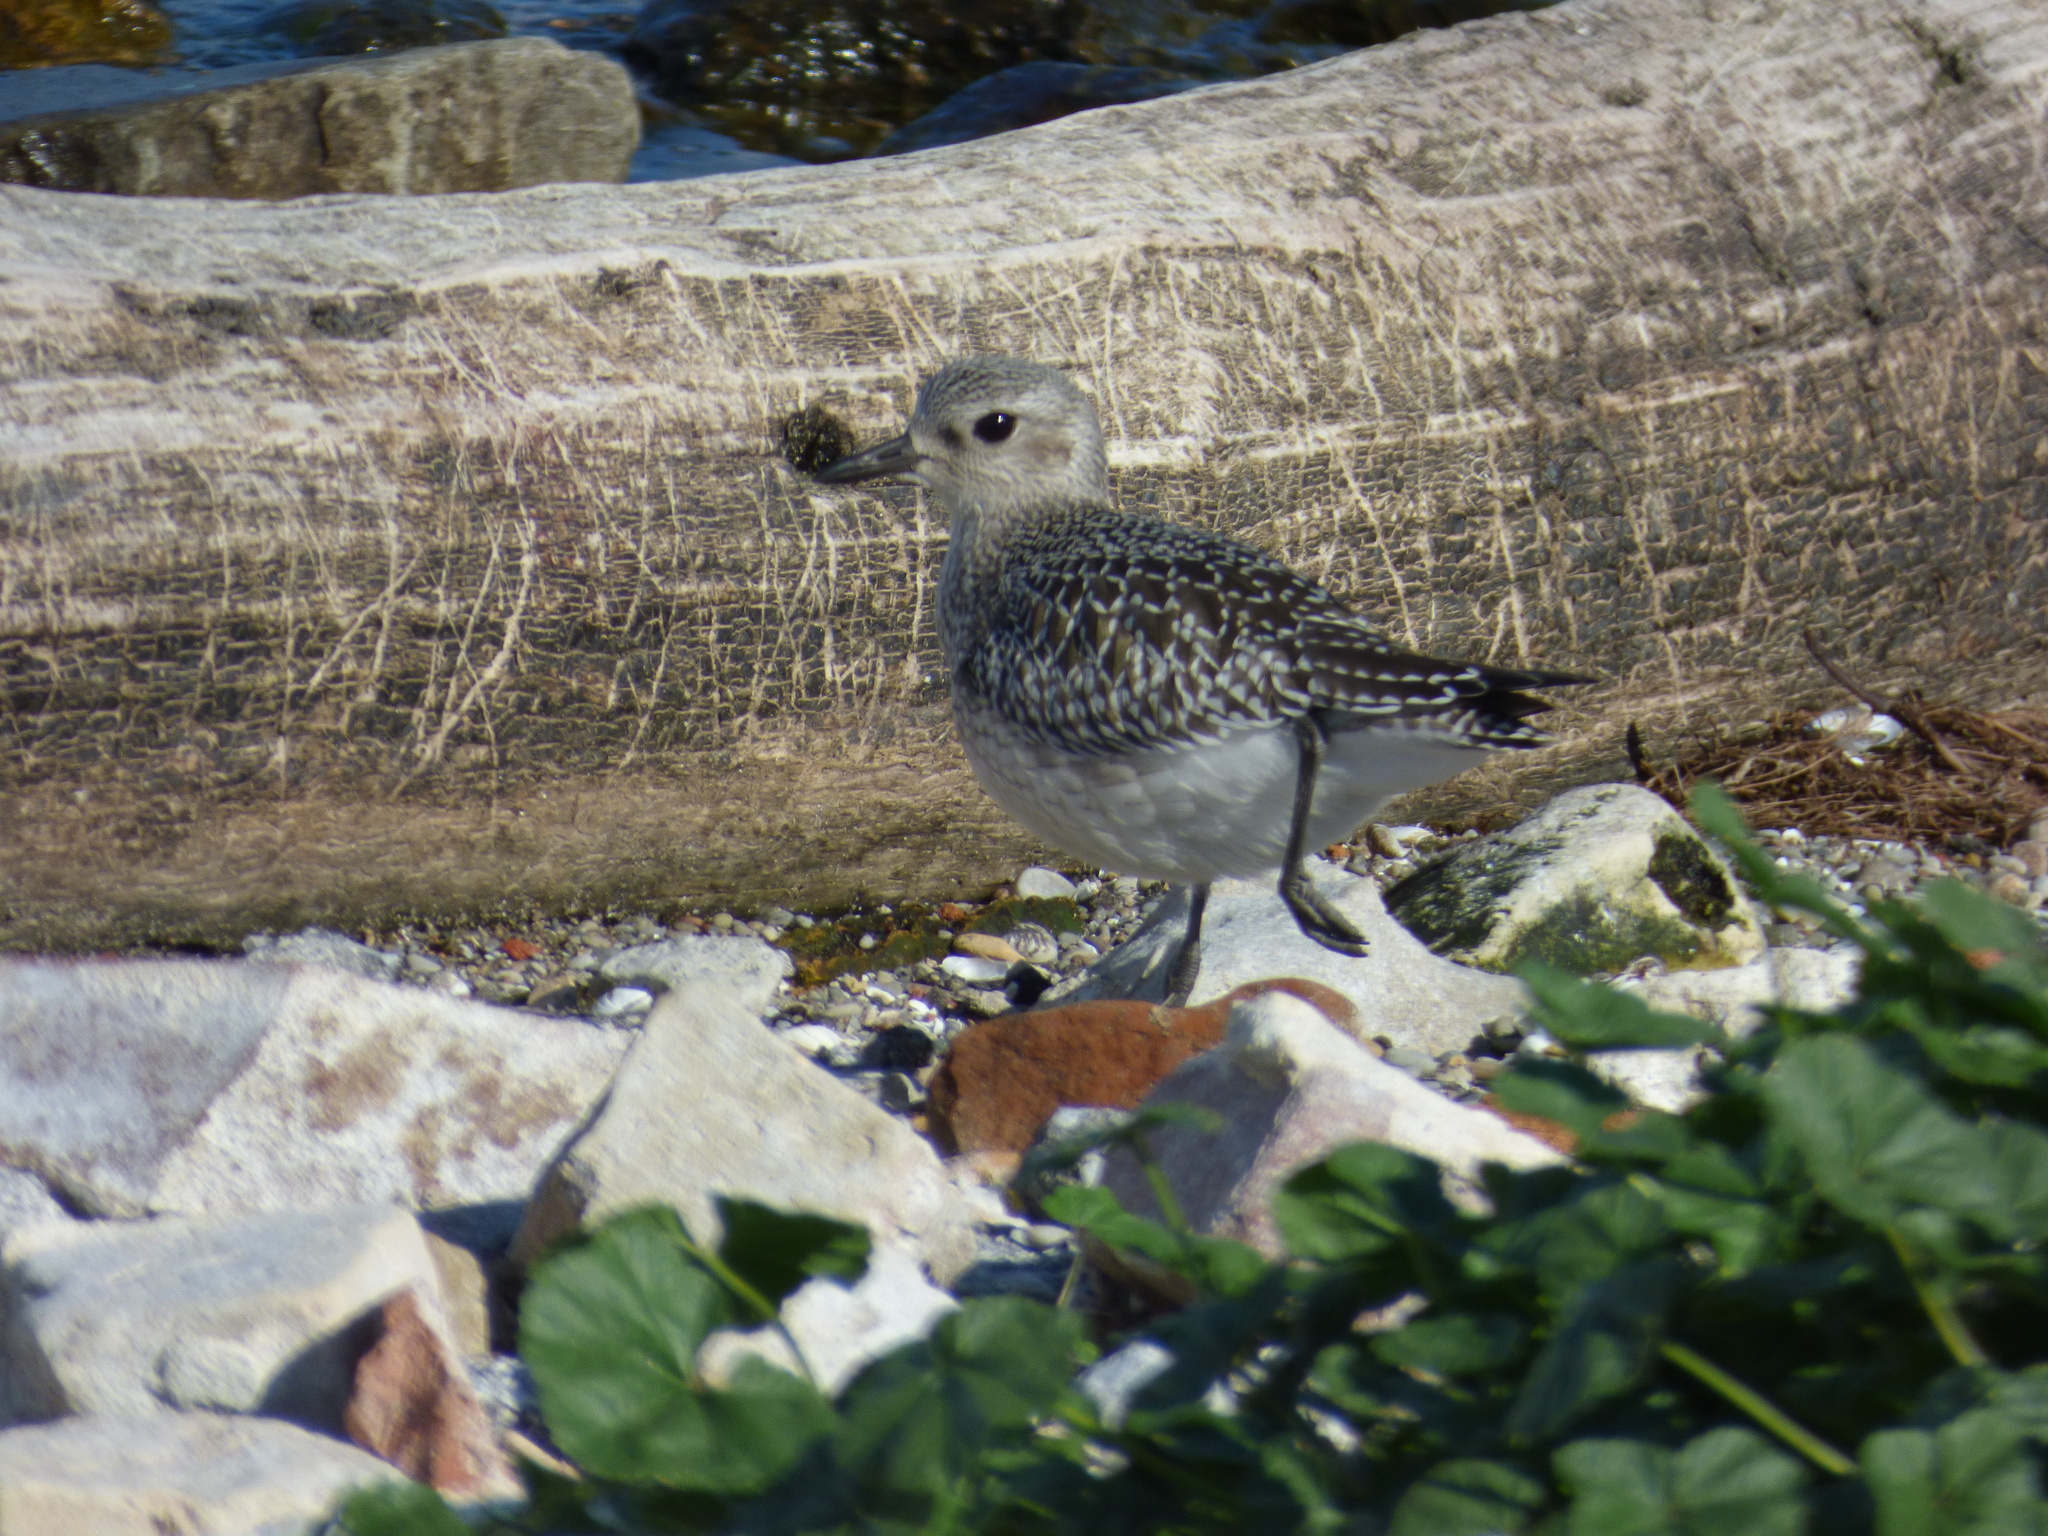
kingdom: Animalia
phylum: Chordata
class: Aves
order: Charadriiformes
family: Charadriidae
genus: Pluvialis
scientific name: Pluvialis squatarola
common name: Grey plover
